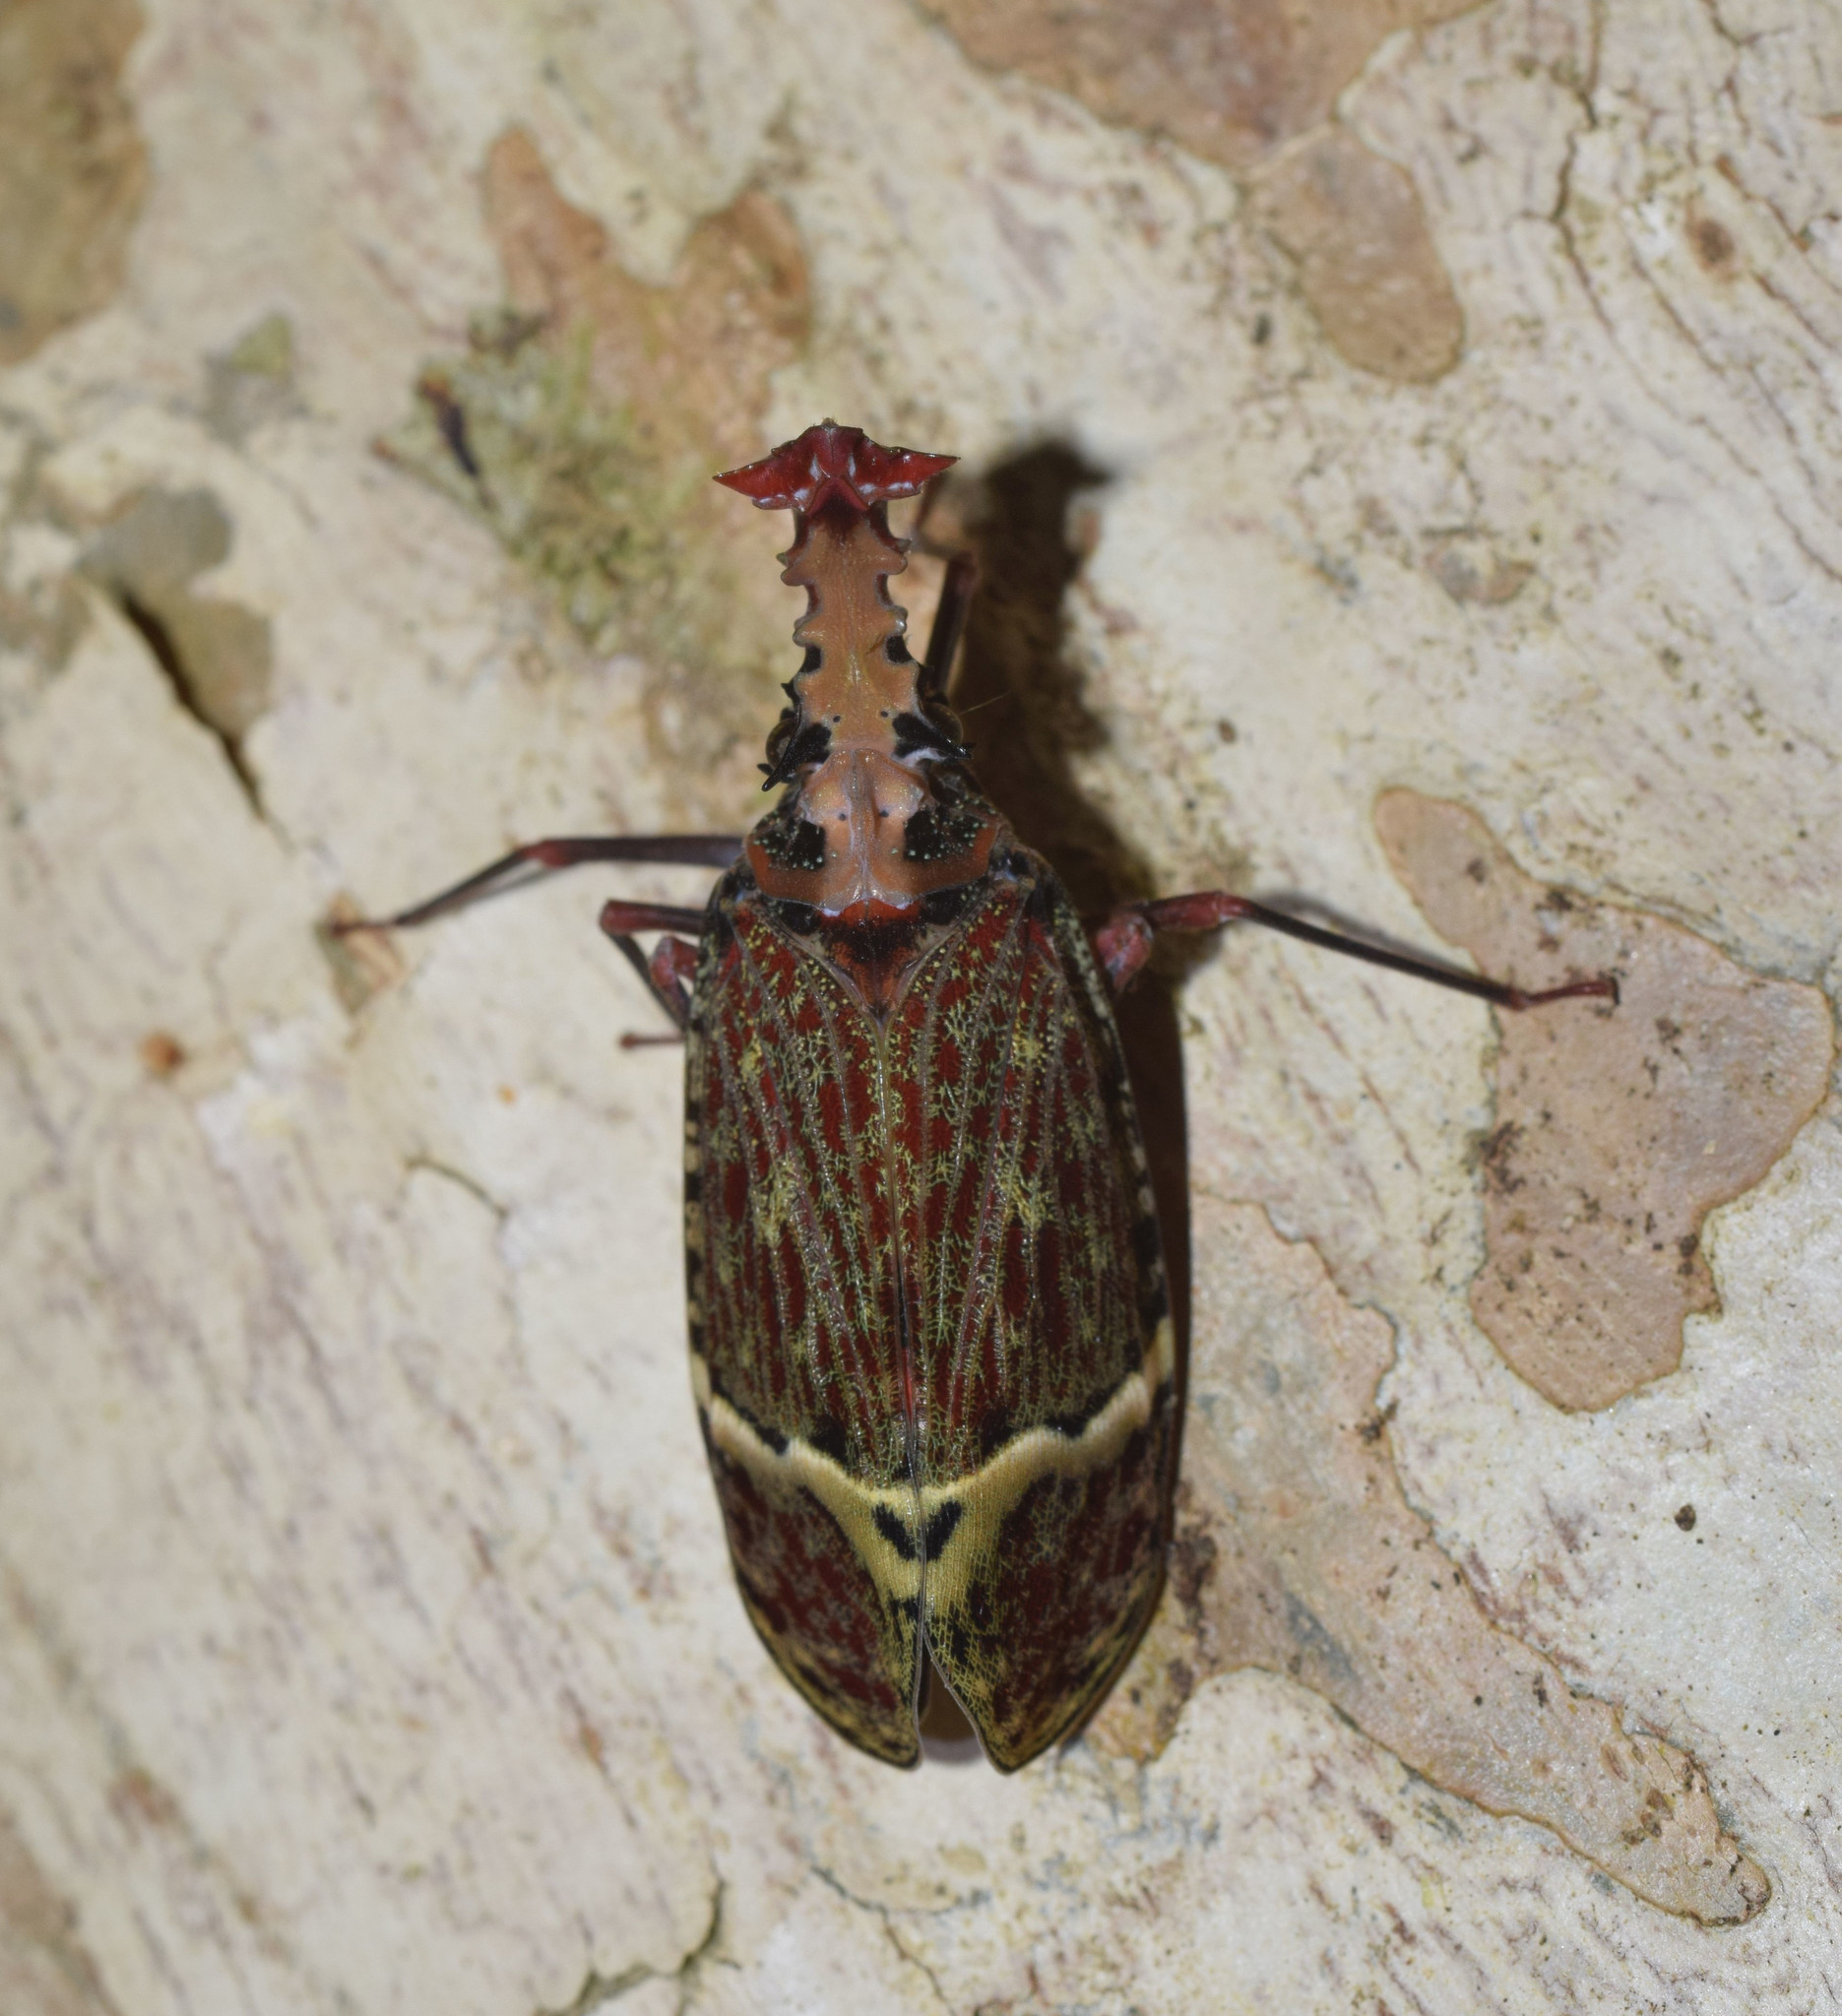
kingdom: Animalia
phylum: Arthropoda
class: Insecta
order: Hemiptera
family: Fulgoridae
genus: Phrictus
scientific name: Phrictus quinquepartitus
